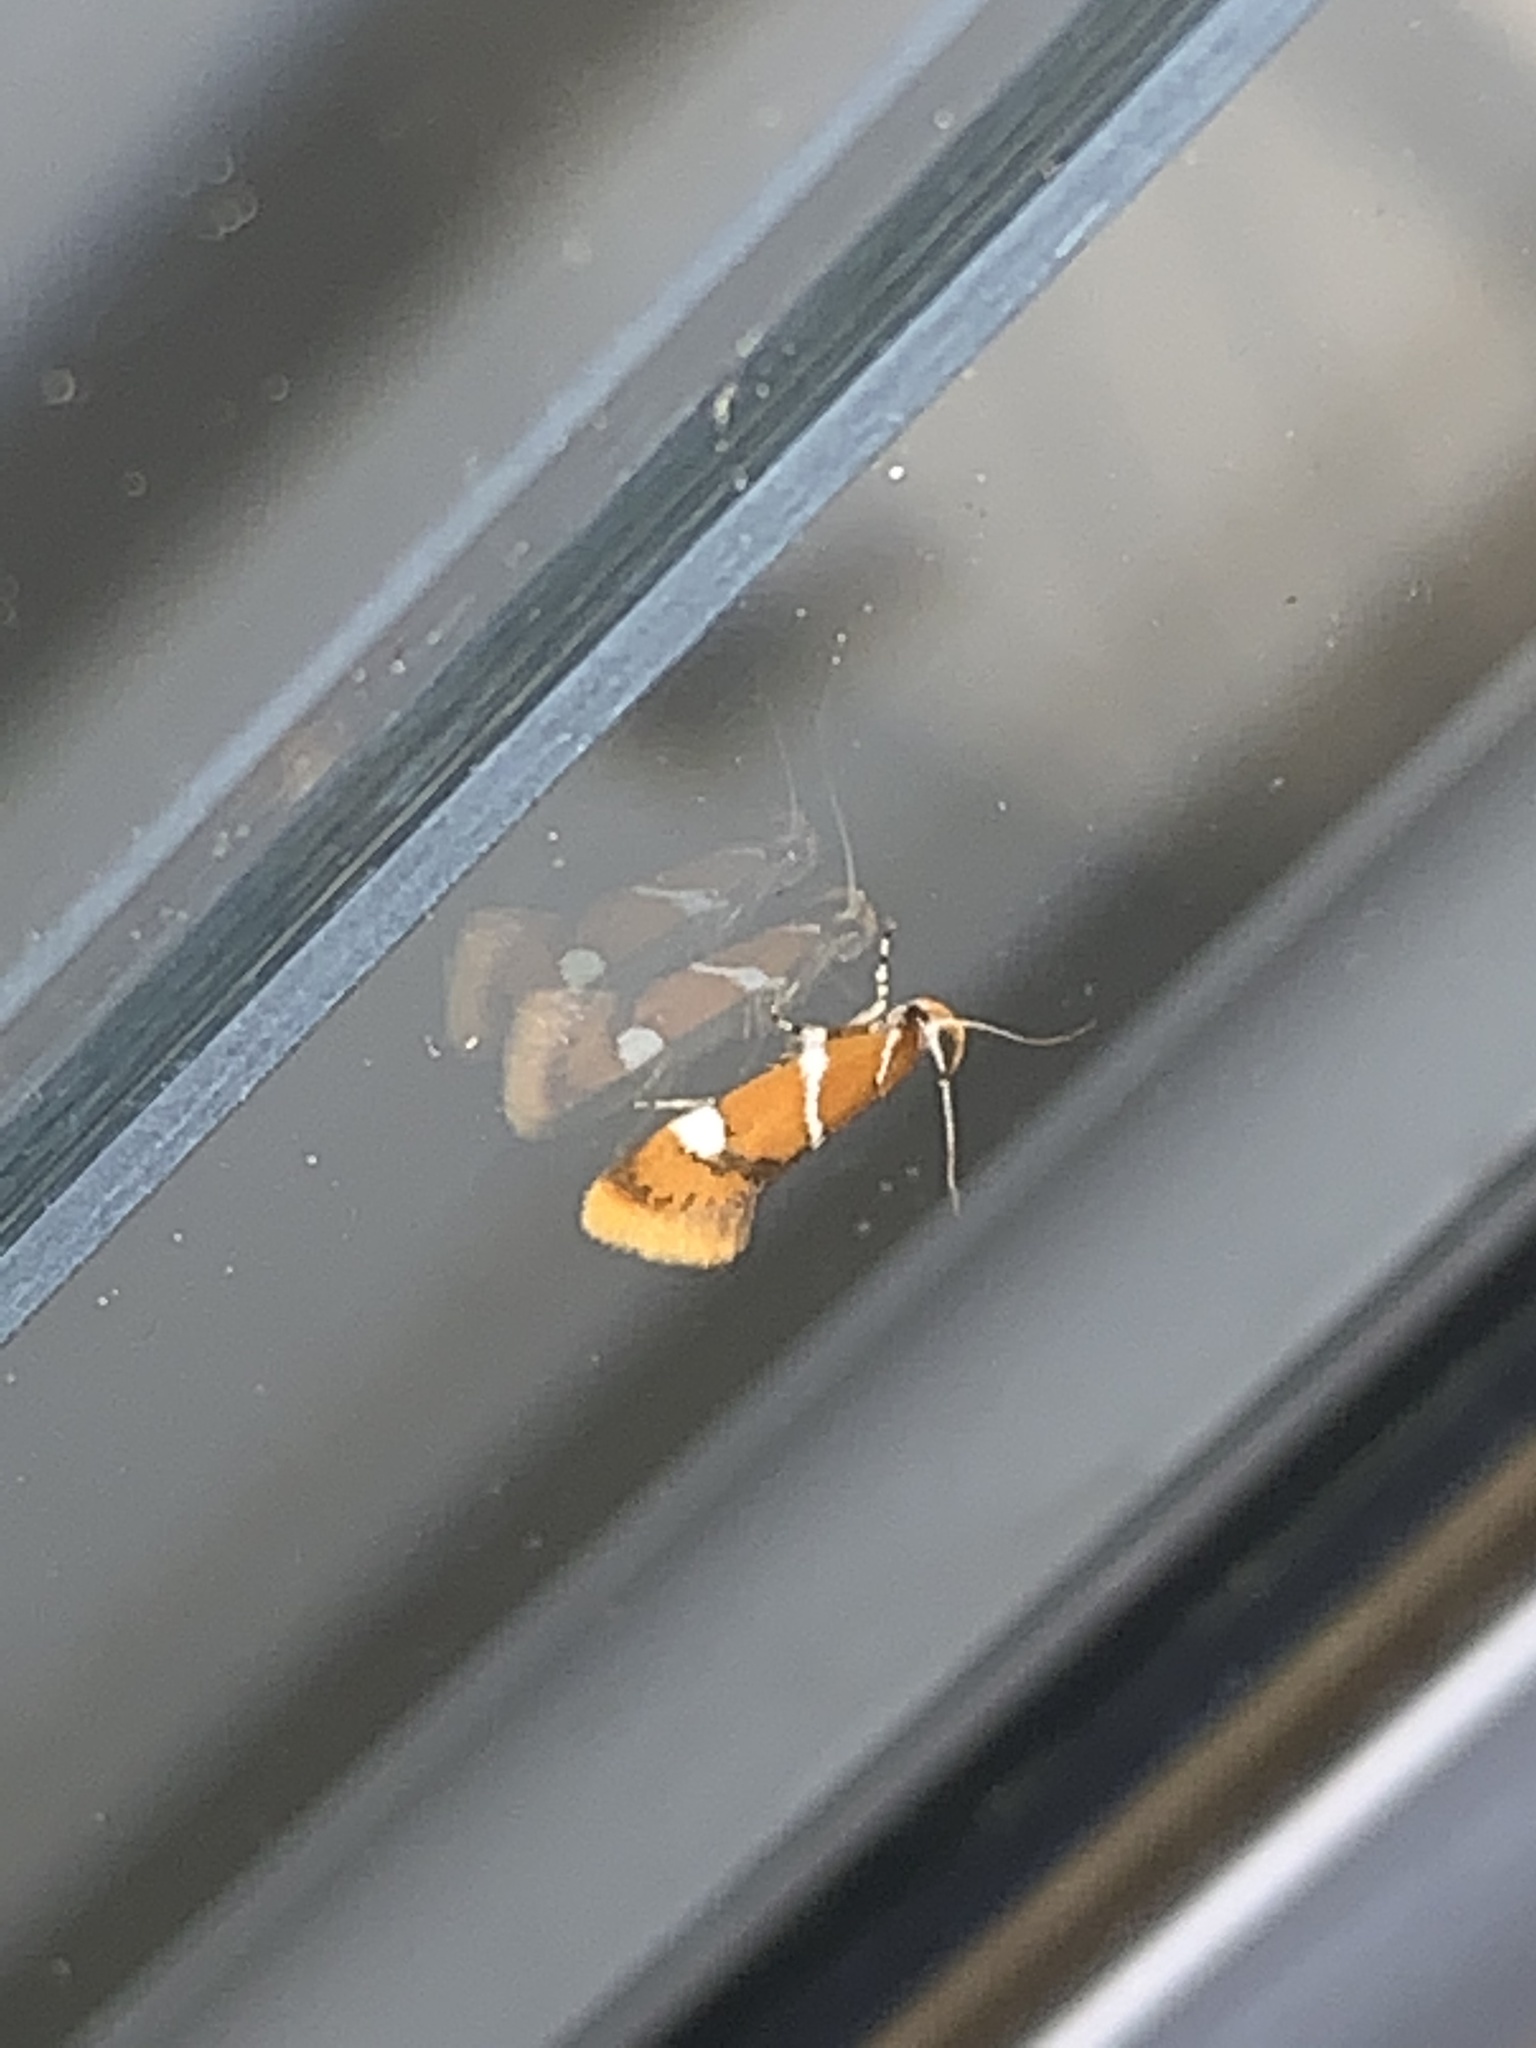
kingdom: Animalia
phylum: Arthropoda
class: Insecta
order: Lepidoptera
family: Oecophoridae
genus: Promalactis
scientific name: Promalactis suzukiella
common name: Moth
